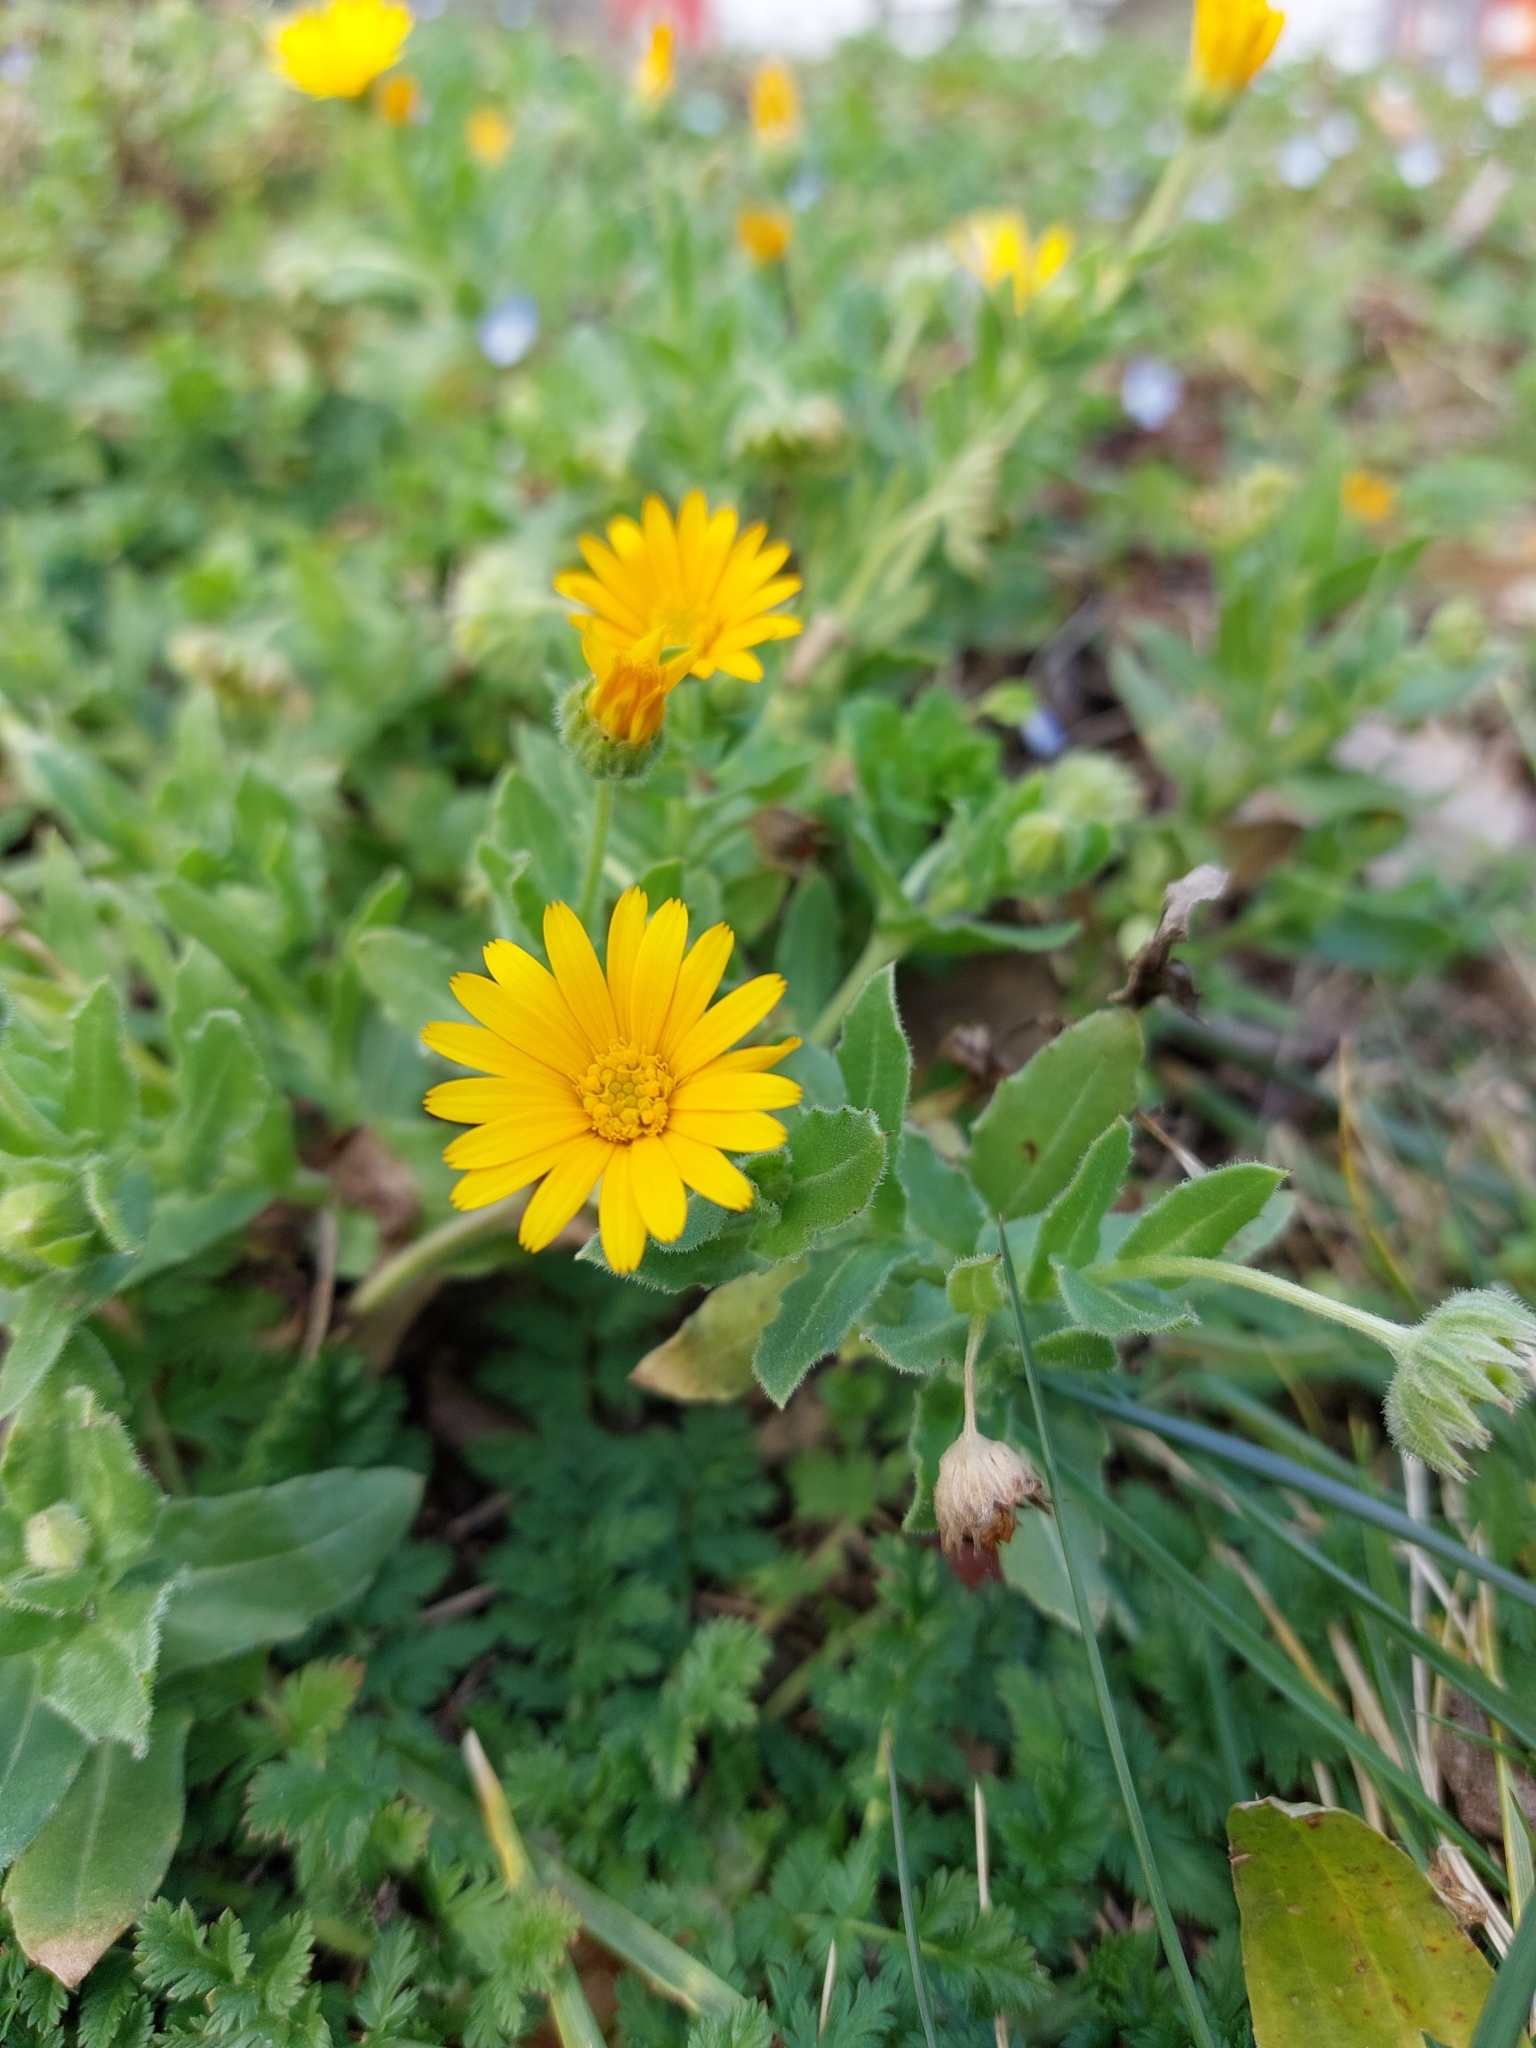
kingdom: Plantae
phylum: Tracheophyta
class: Magnoliopsida
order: Asterales
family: Asteraceae
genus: Calendula
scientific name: Calendula arvensis
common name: Field marigold
